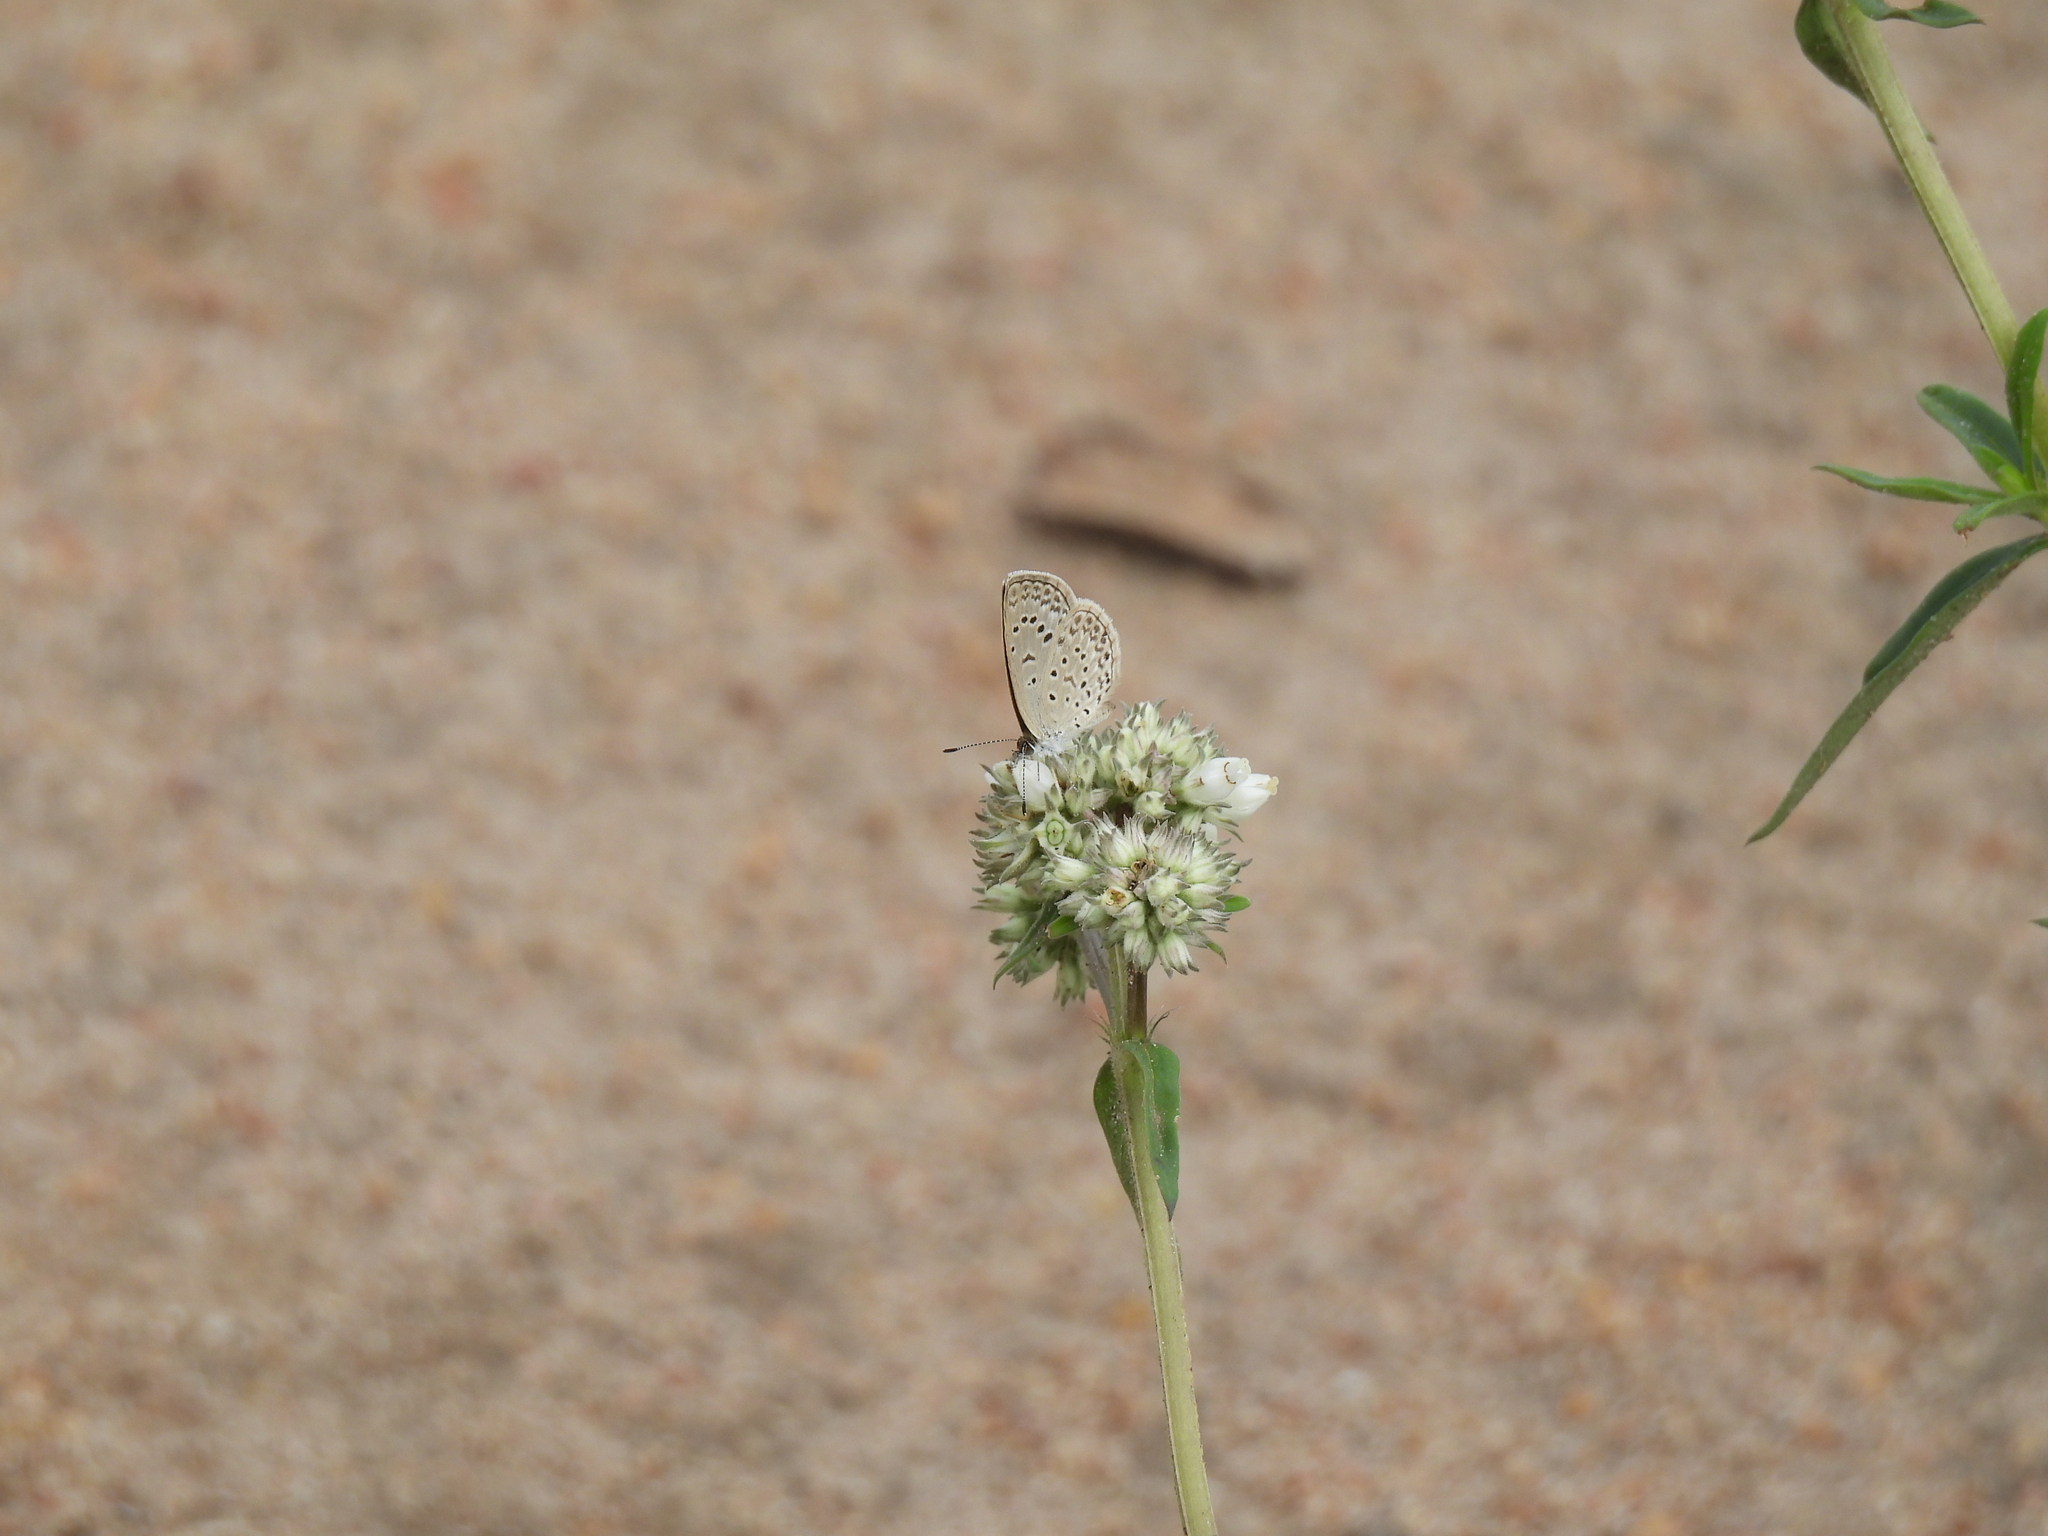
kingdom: Animalia
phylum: Arthropoda
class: Insecta
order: Lepidoptera
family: Lycaenidae
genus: Zizeeria
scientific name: Zizeeria knysna
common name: African grass blue
